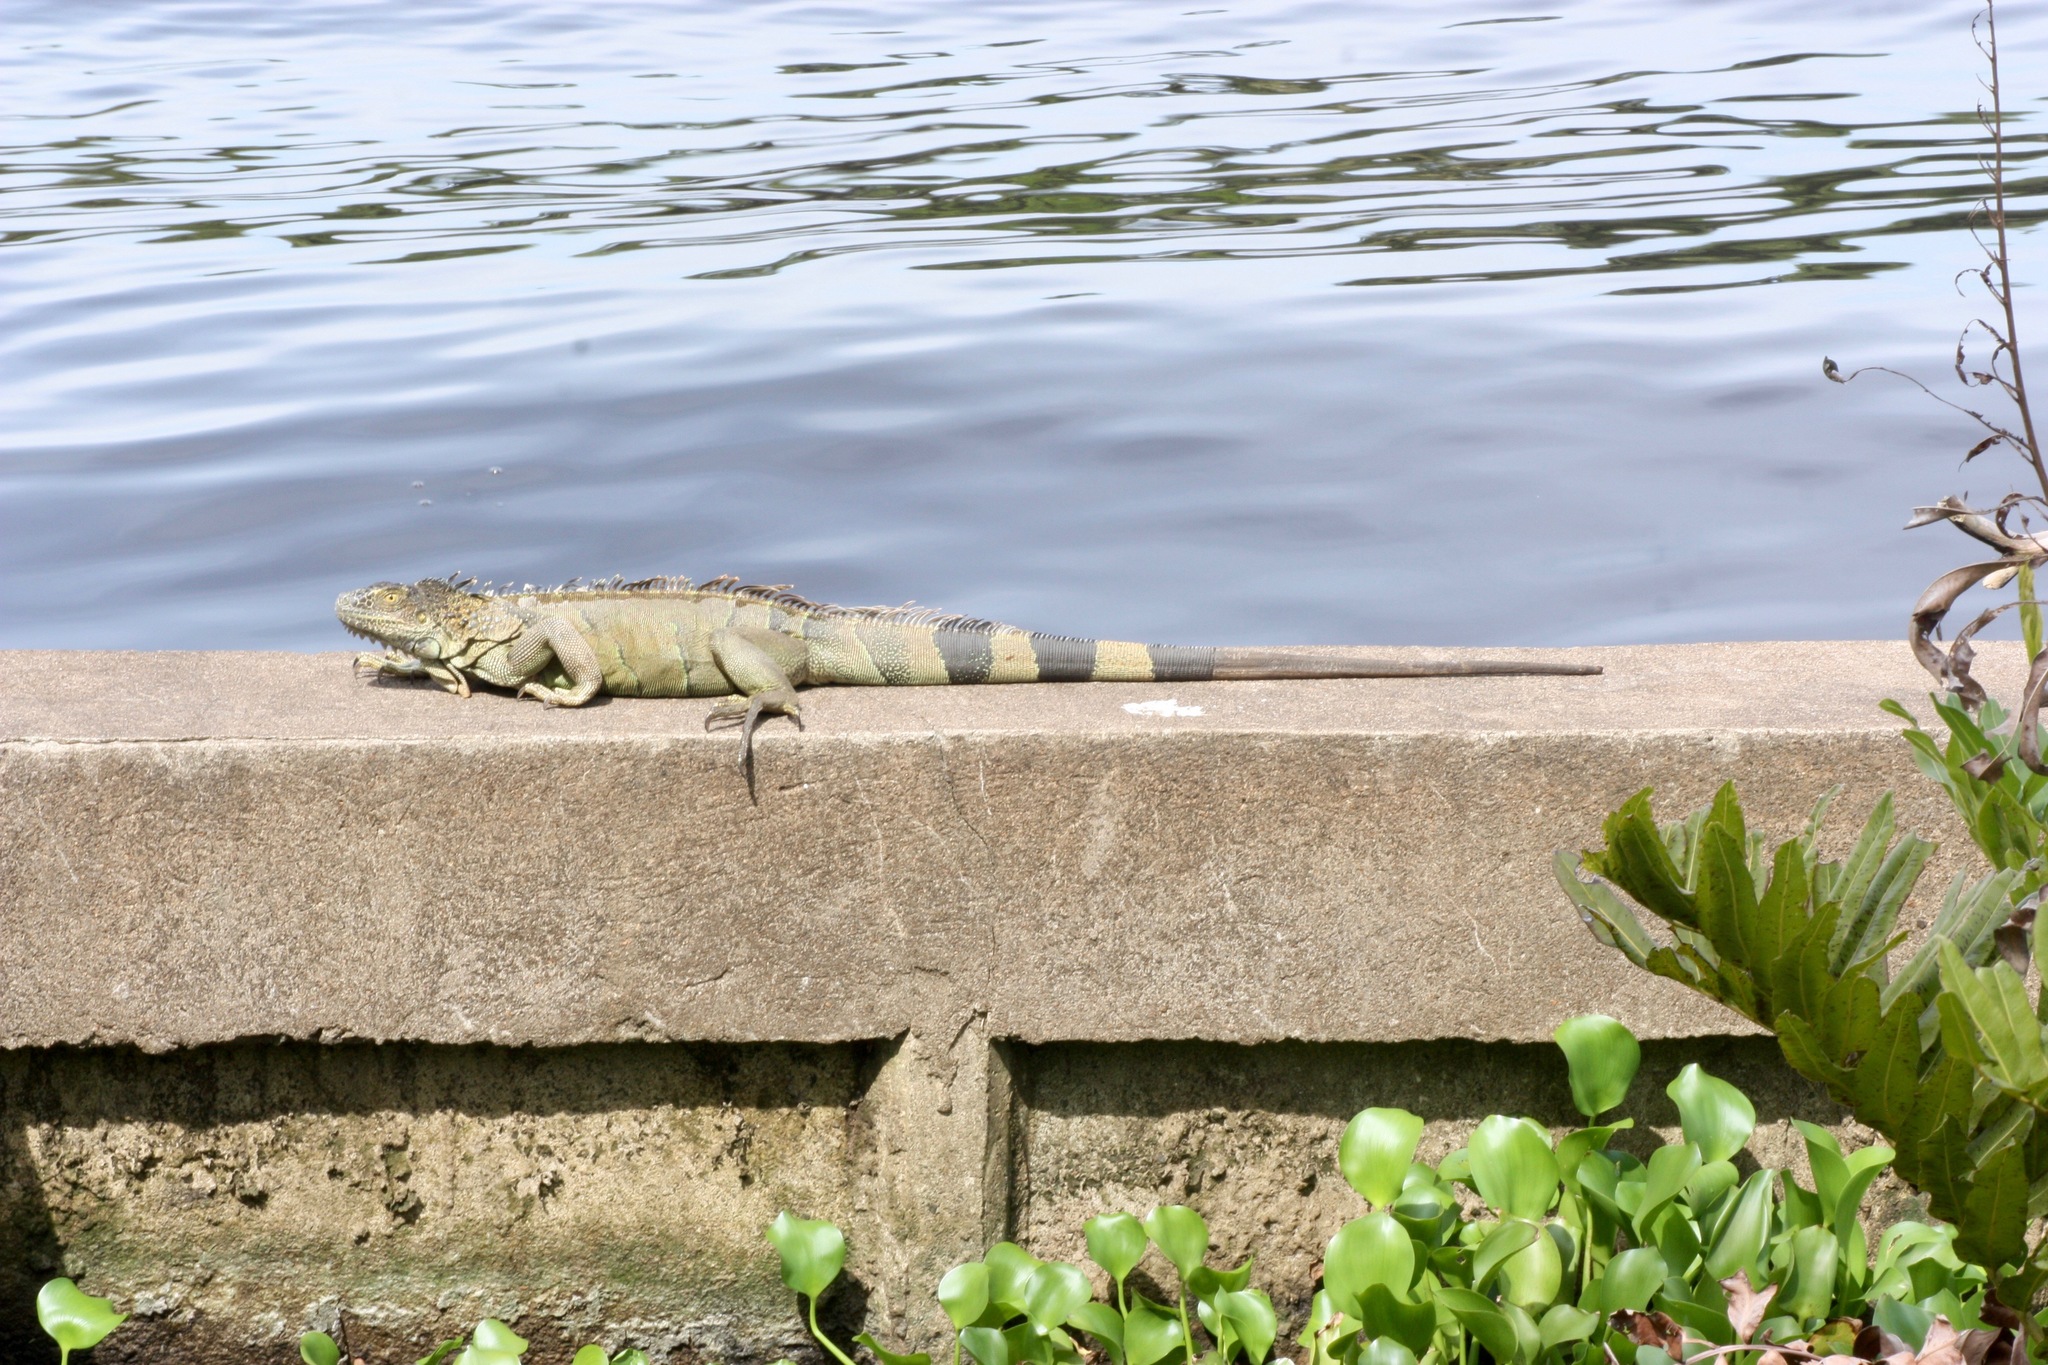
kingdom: Animalia
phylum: Chordata
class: Squamata
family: Iguanidae
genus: Iguana
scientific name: Iguana iguana
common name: Green iguana
